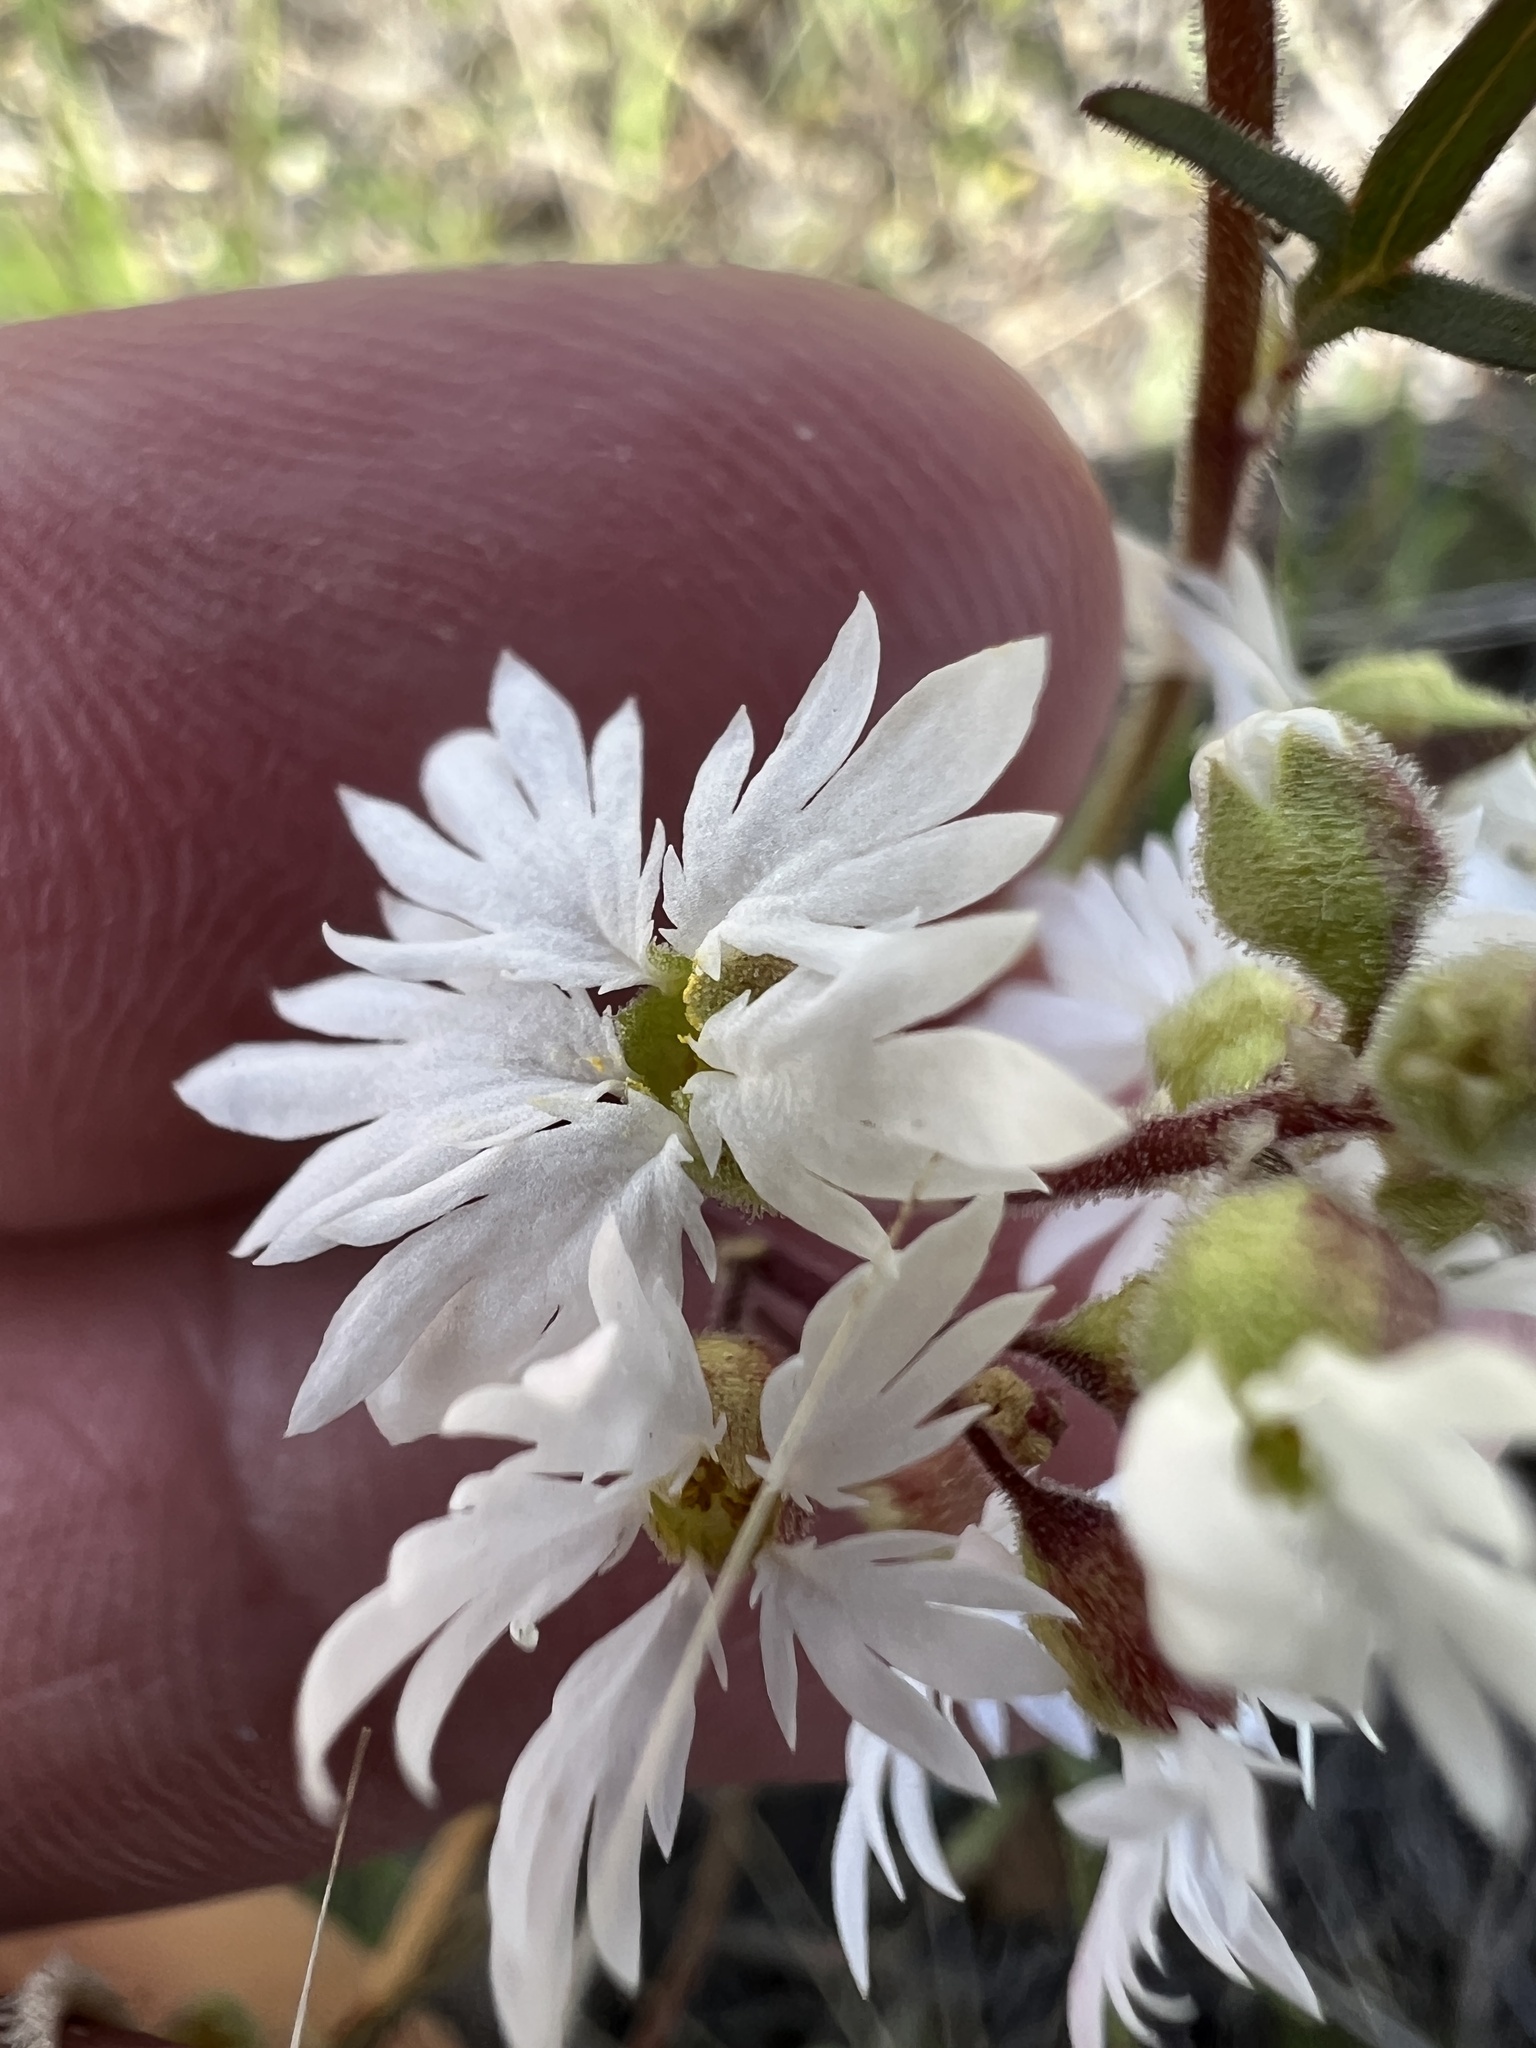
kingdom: Plantae
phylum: Tracheophyta
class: Magnoliopsida
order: Saxifragales
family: Saxifragaceae
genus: Lithophragma
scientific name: Lithophragma tenella
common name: Slender fringe-cup
